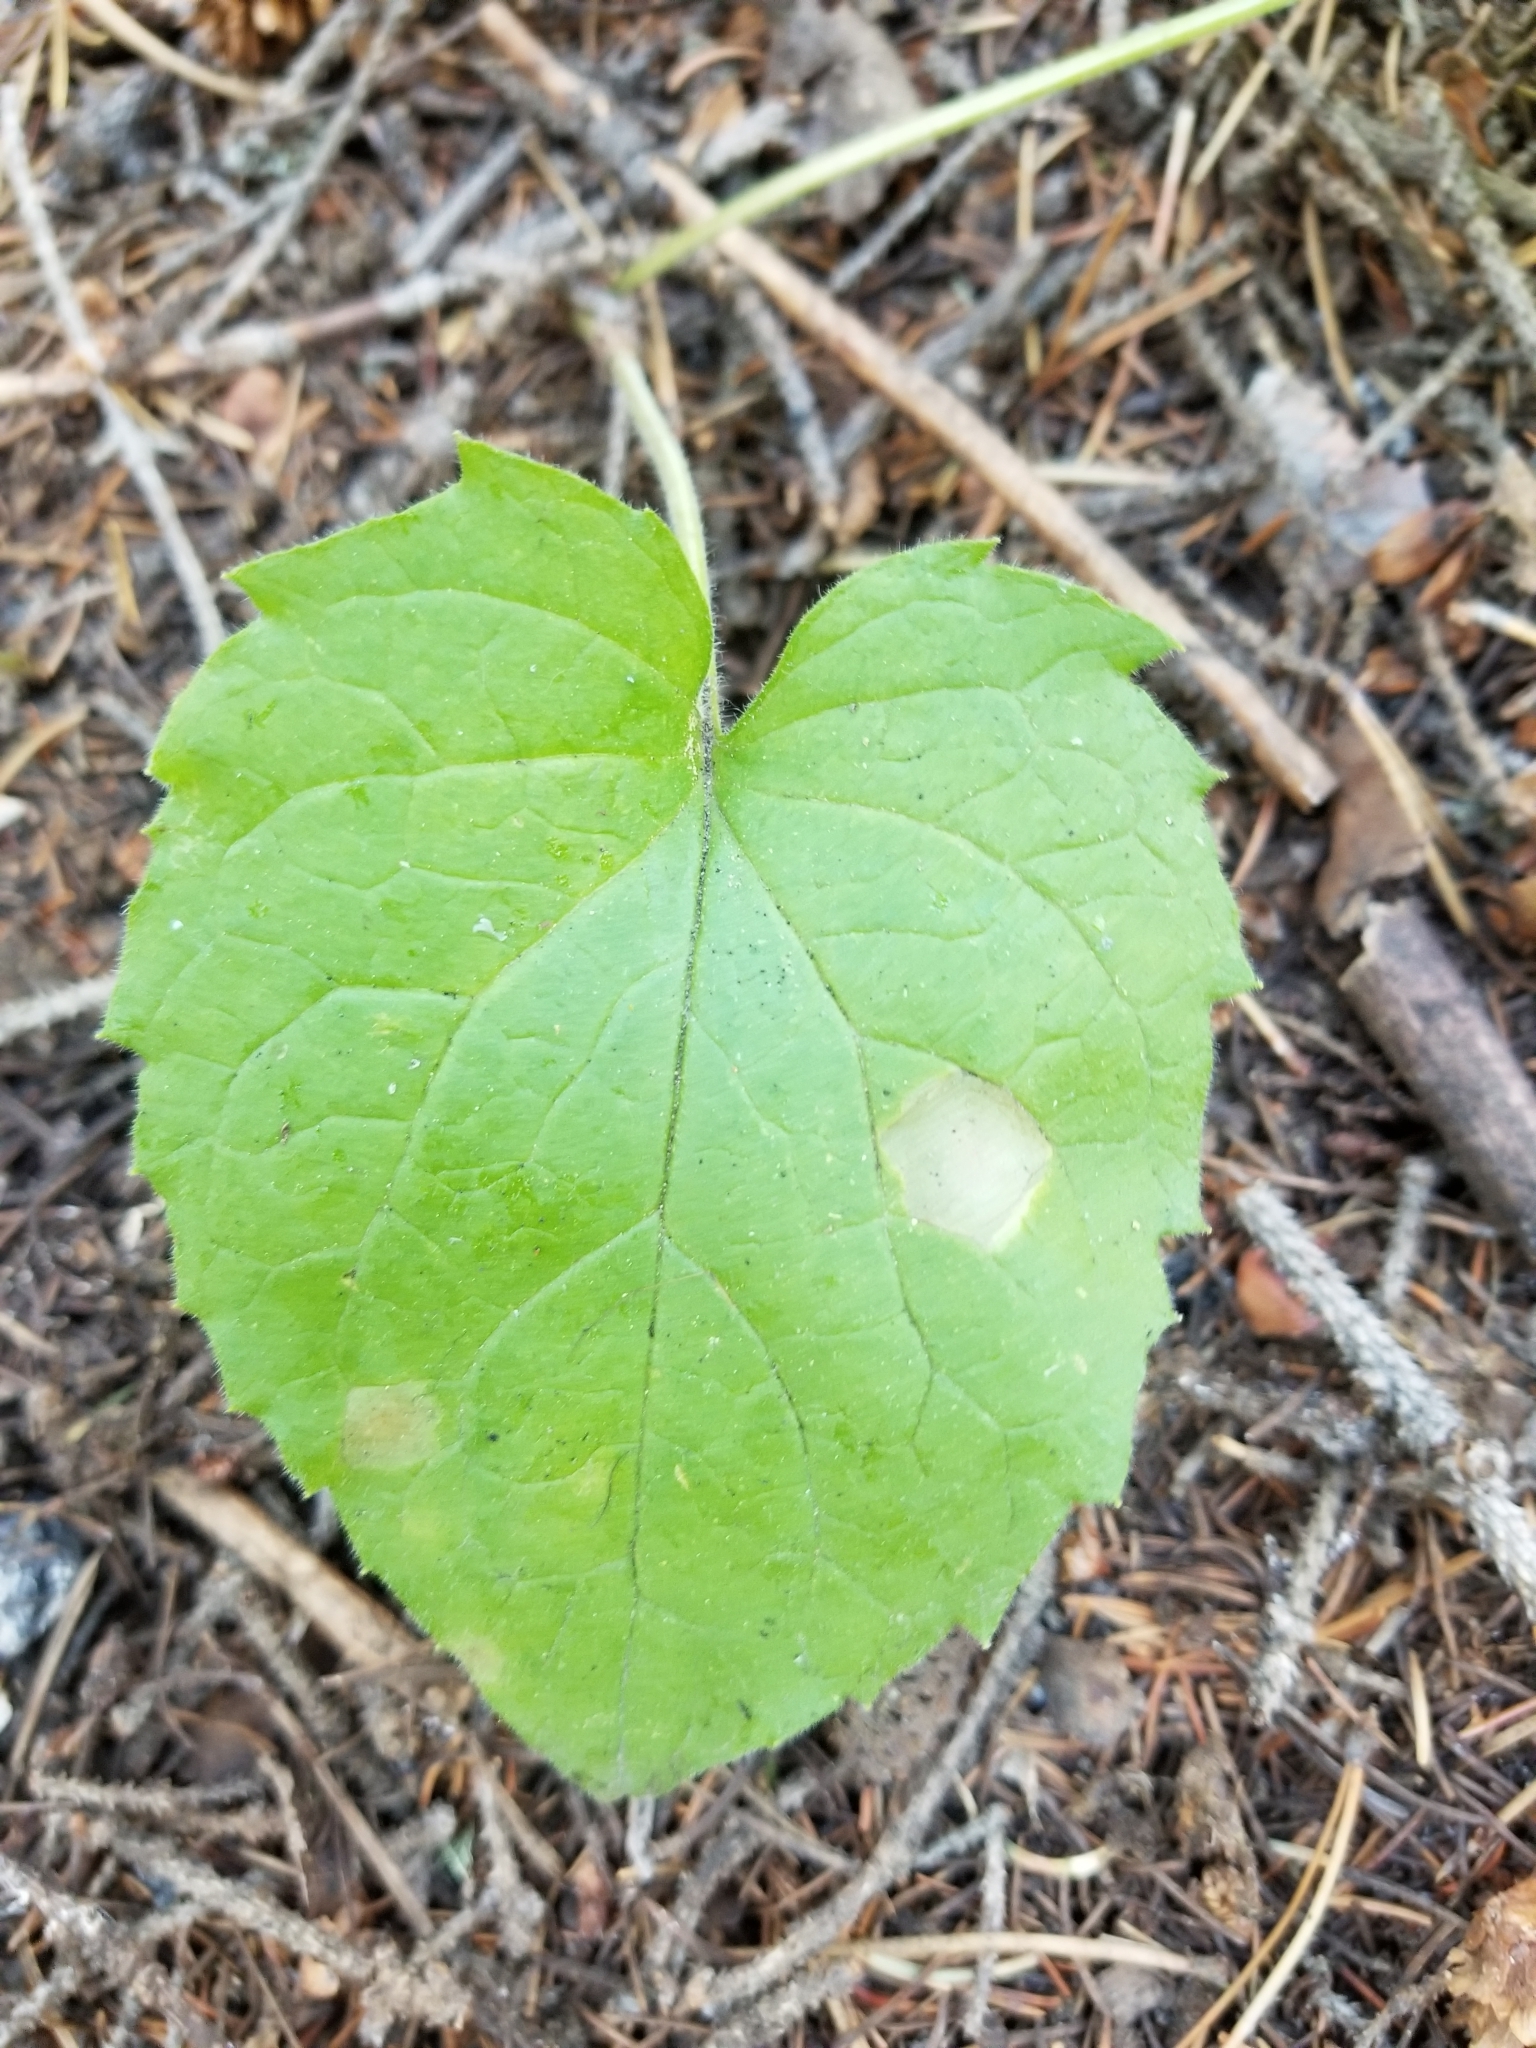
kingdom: Plantae
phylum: Tracheophyta
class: Magnoliopsida
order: Asterales
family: Asteraceae
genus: Arnica
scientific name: Arnica cordifolia
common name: Heart-leaf arnica
